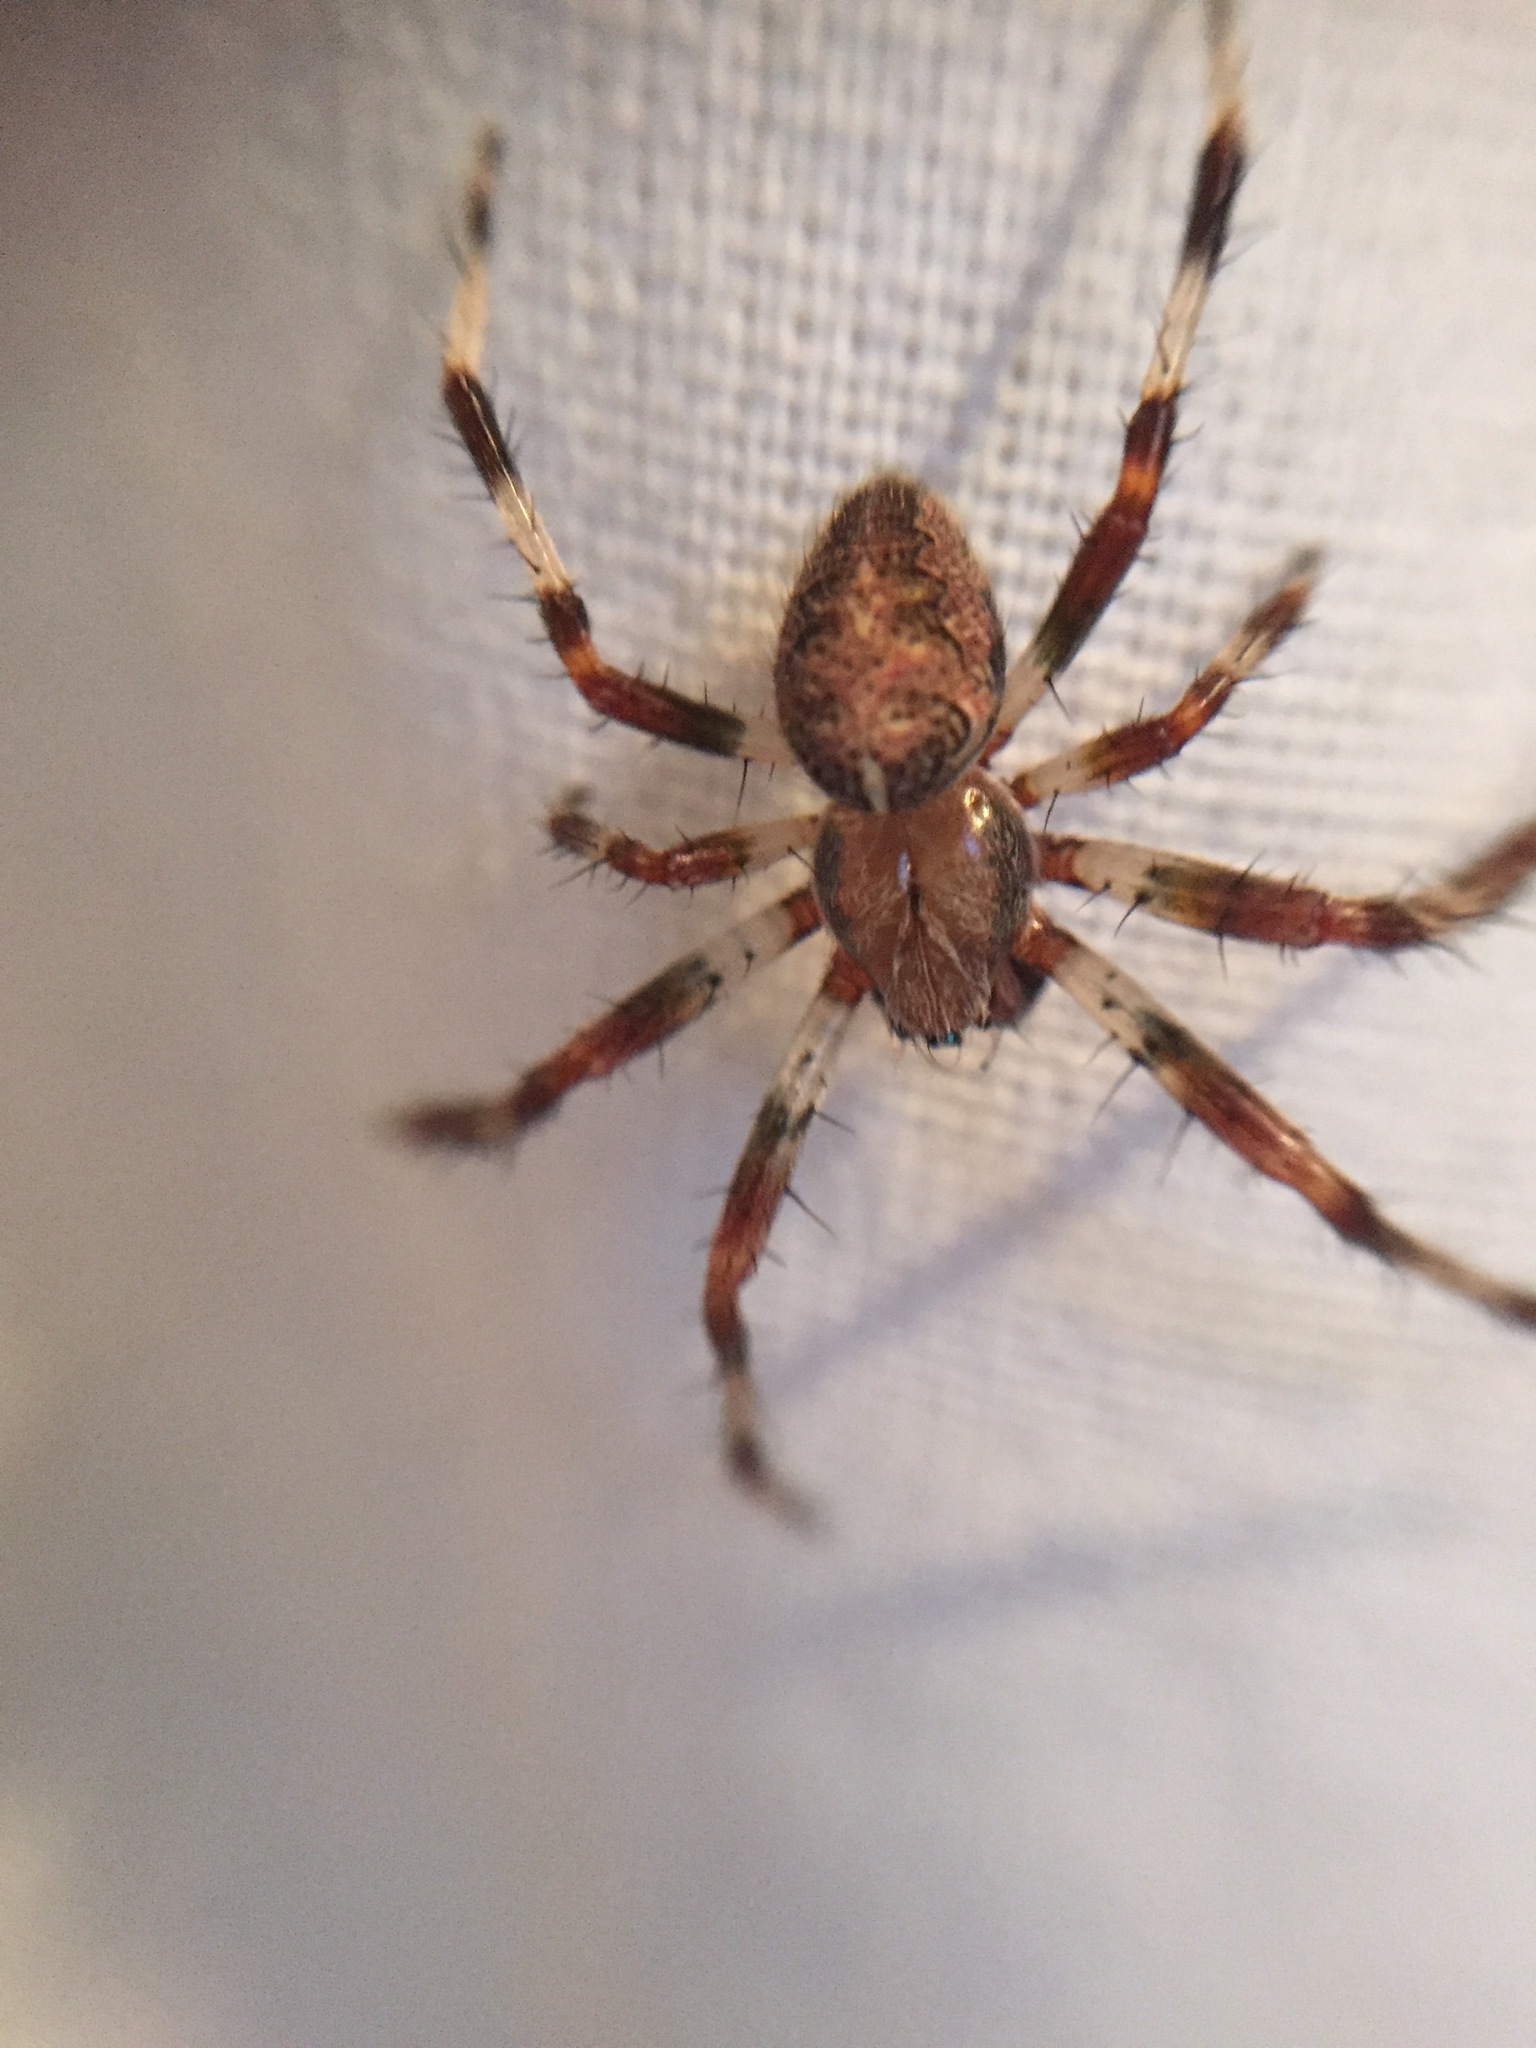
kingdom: Animalia
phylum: Arthropoda
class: Arachnida
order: Araneae
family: Araneidae
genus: Araneus
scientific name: Araneus marmoreus
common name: Marbled orbweaver
